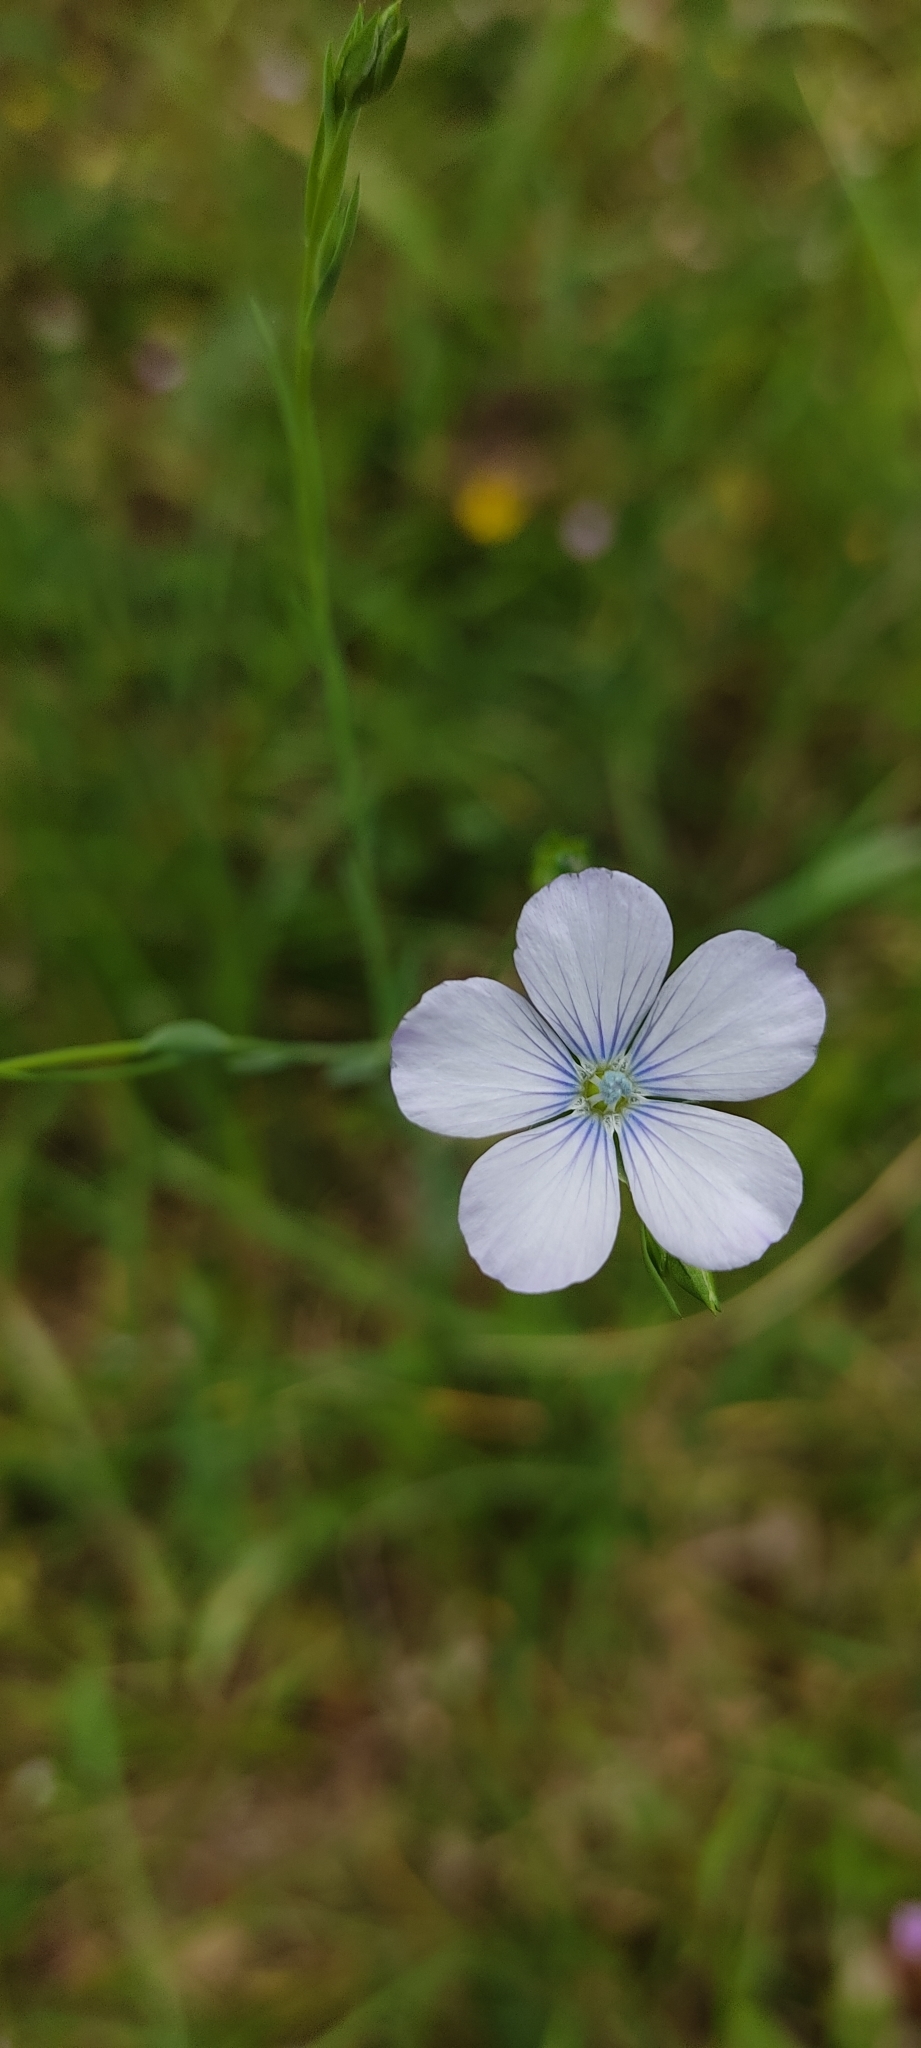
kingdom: Plantae
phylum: Tracheophyta
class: Magnoliopsida
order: Malpighiales
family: Linaceae
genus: Linum
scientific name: Linum usitatissimum
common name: Flax
